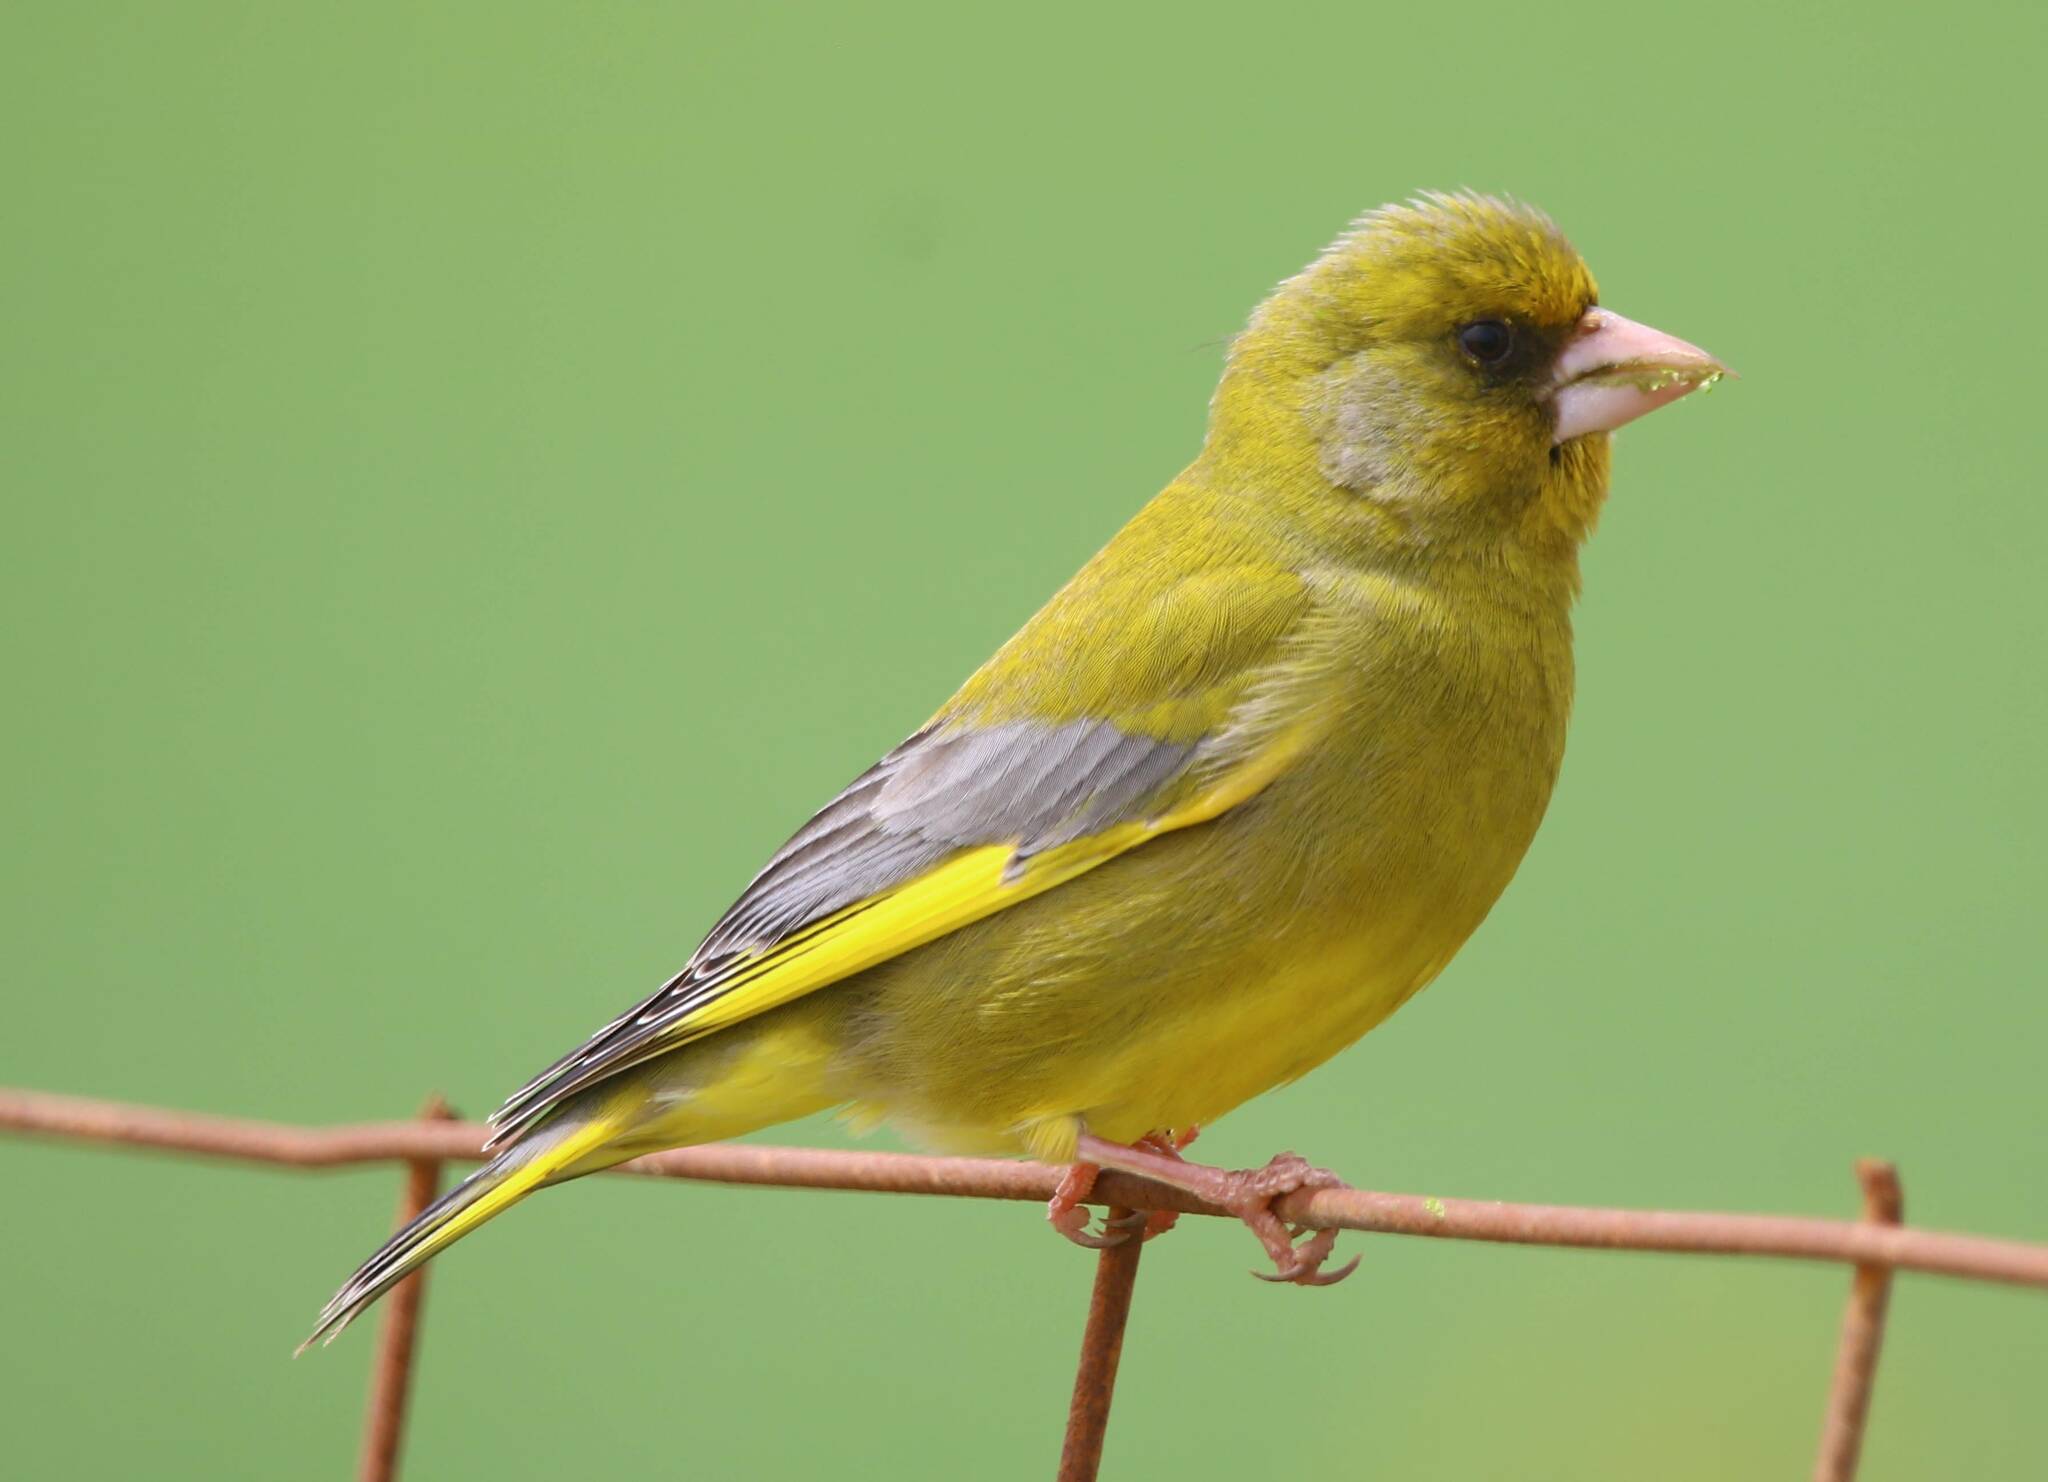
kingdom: Plantae
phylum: Tracheophyta
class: Liliopsida
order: Poales
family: Poaceae
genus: Chloris
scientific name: Chloris chloris
